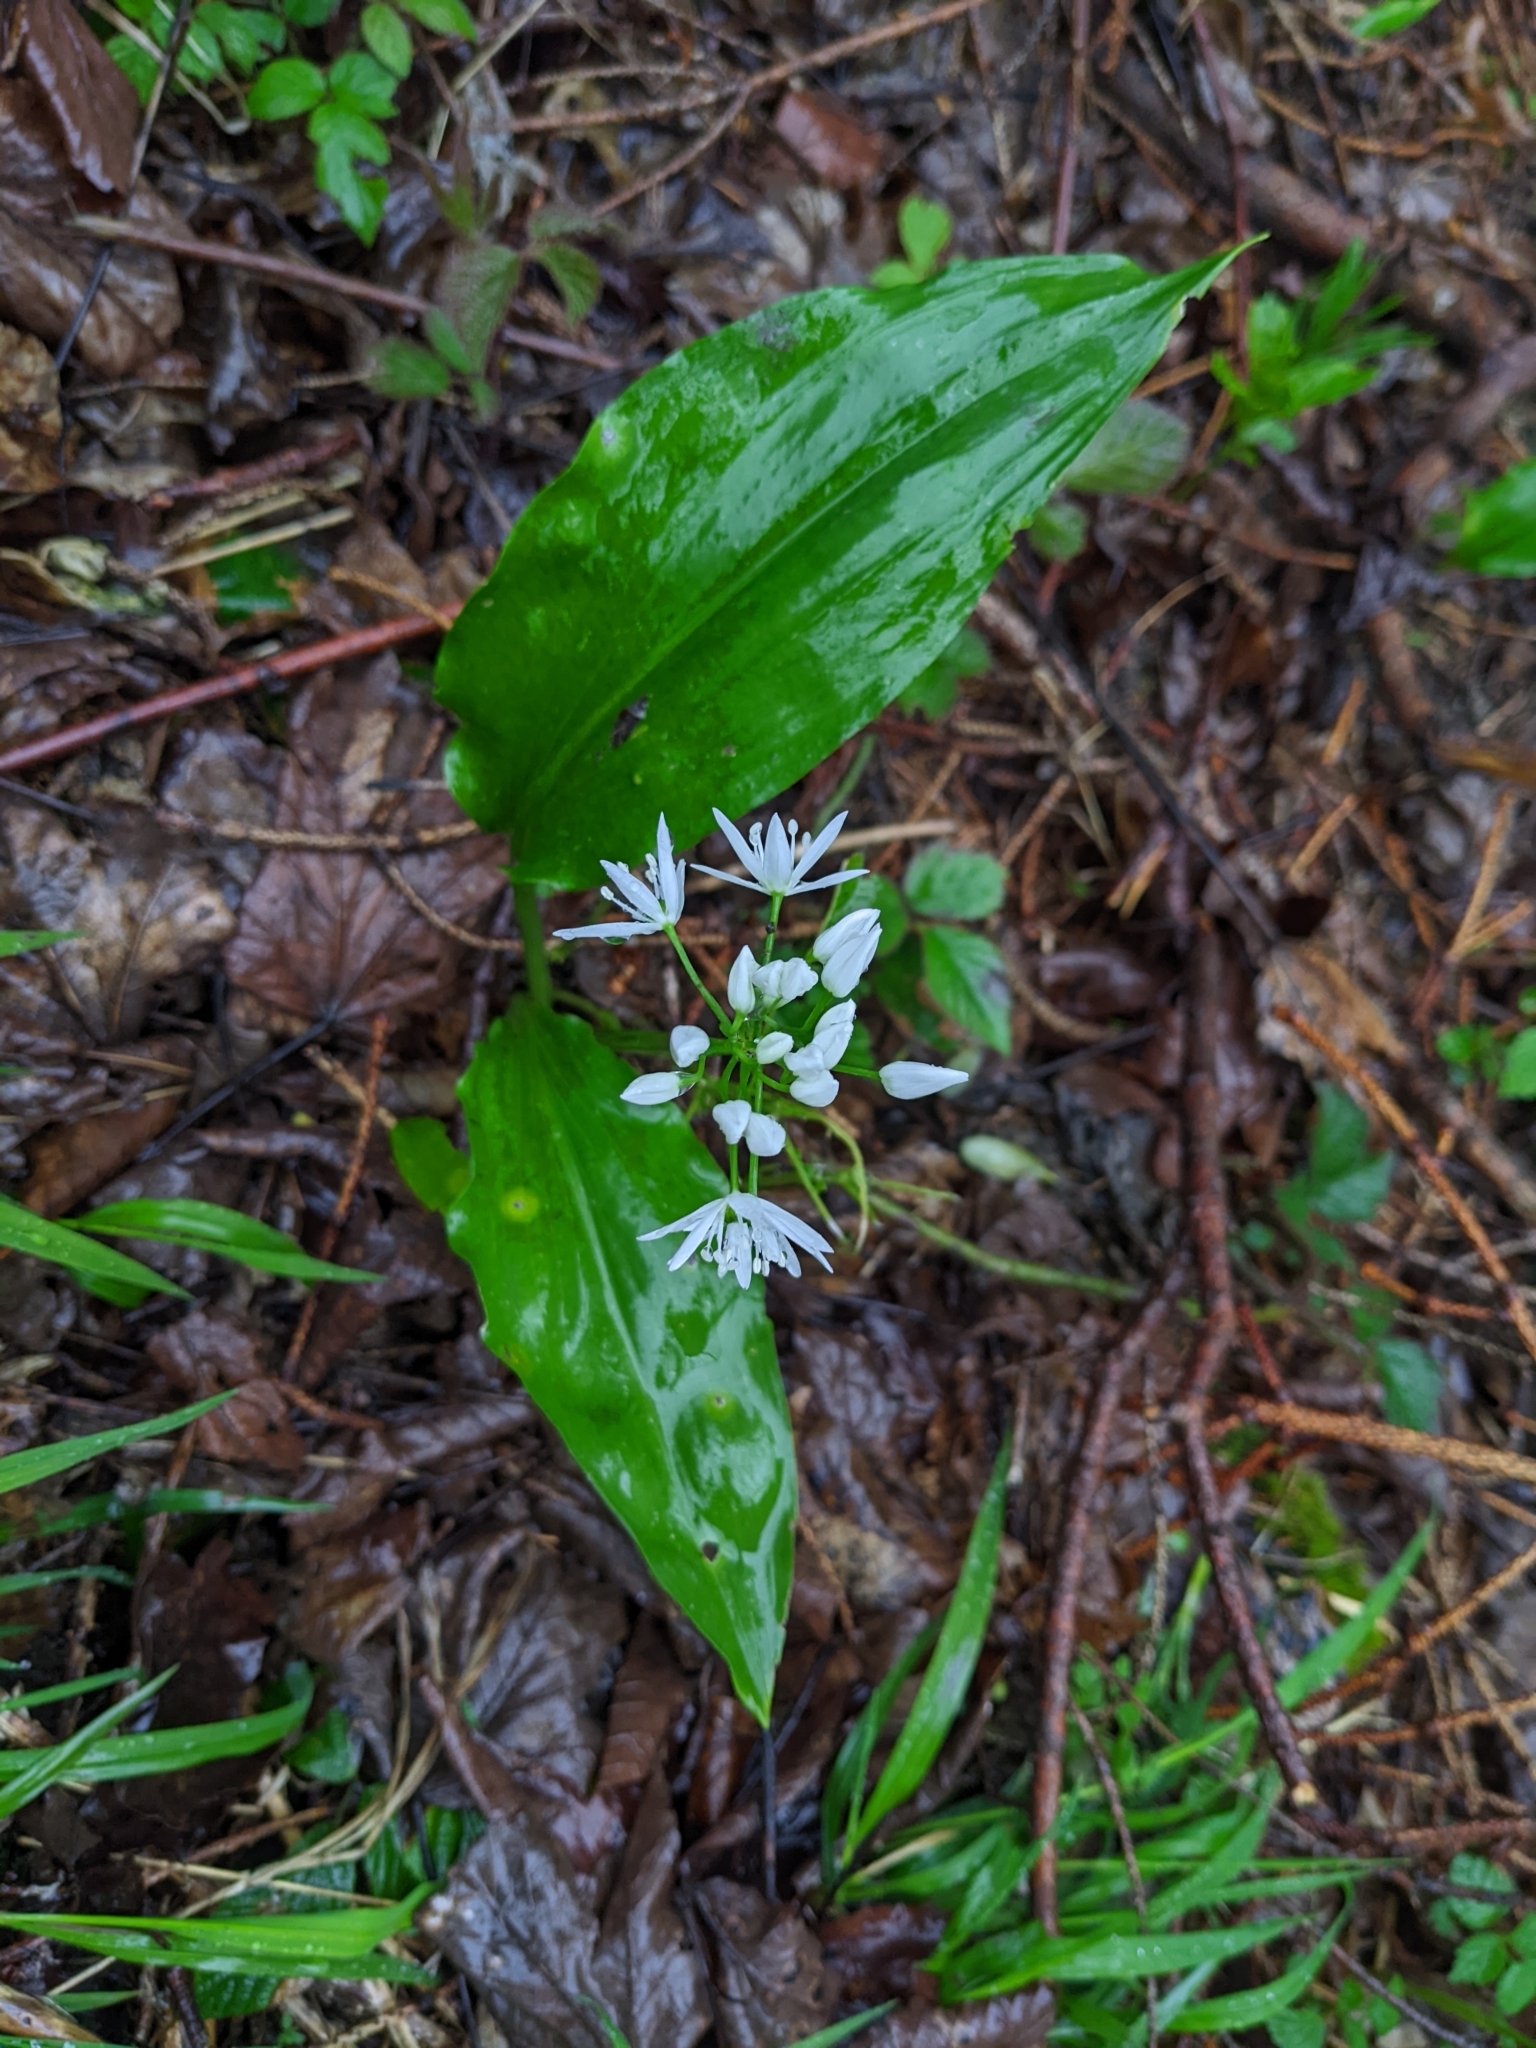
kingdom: Plantae
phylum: Tracheophyta
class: Liliopsida
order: Asparagales
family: Amaryllidaceae
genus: Allium
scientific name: Allium ursinum
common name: Ramsons
